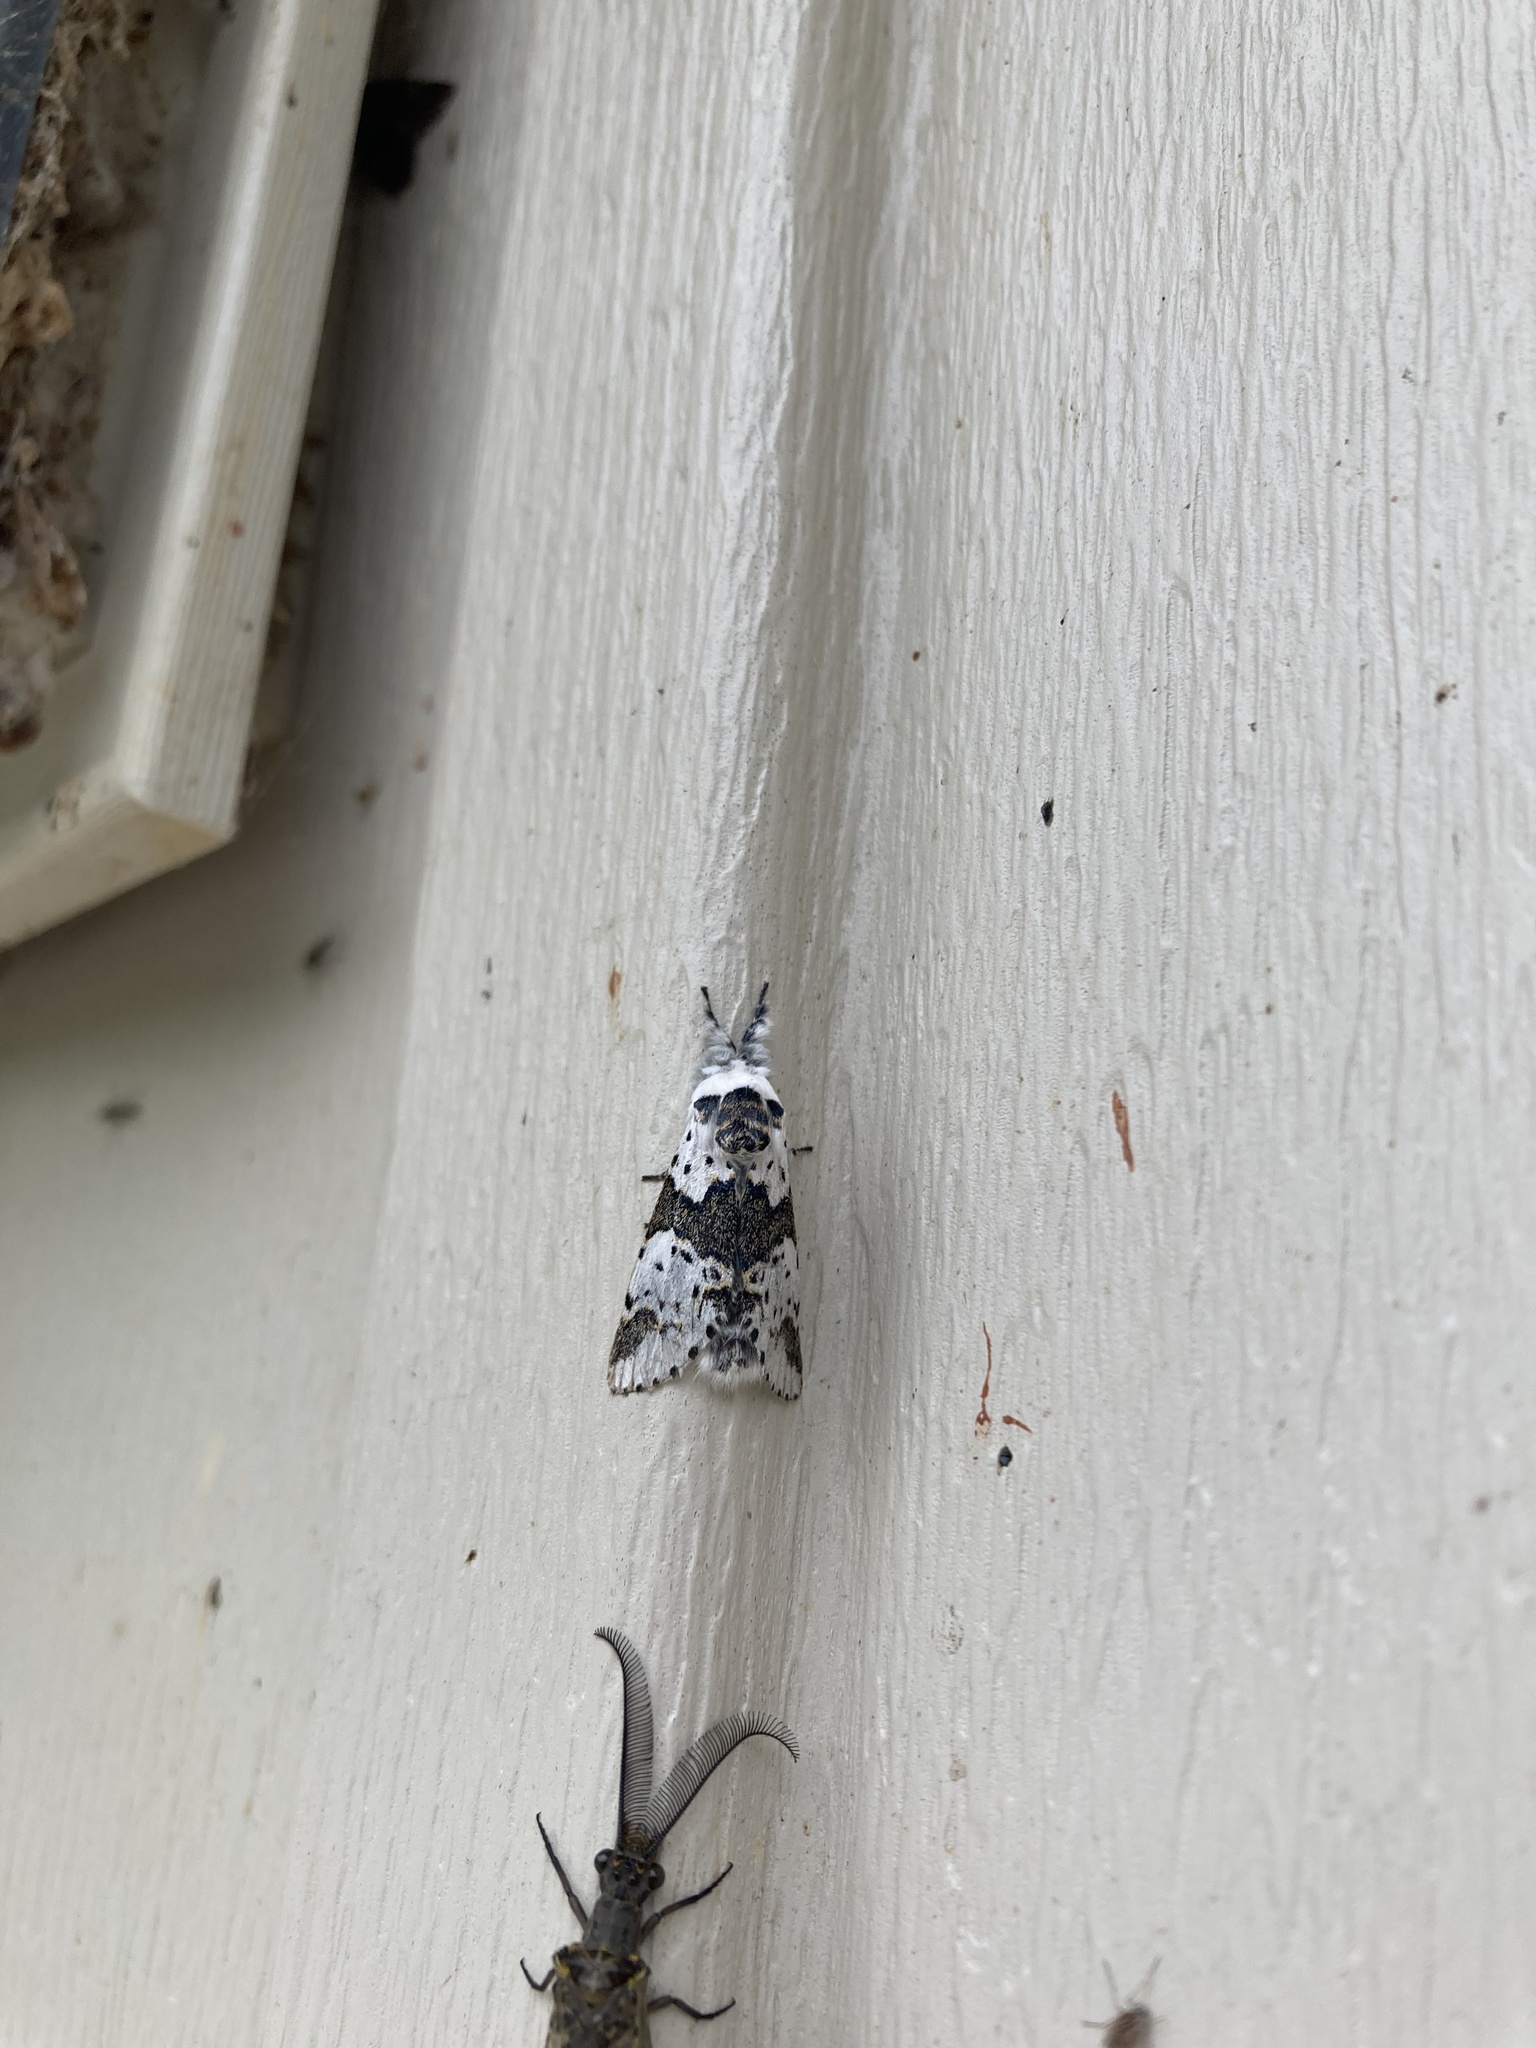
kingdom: Animalia
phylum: Arthropoda
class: Insecta
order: Lepidoptera
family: Notodontidae
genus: Furcula
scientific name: Furcula borealis
